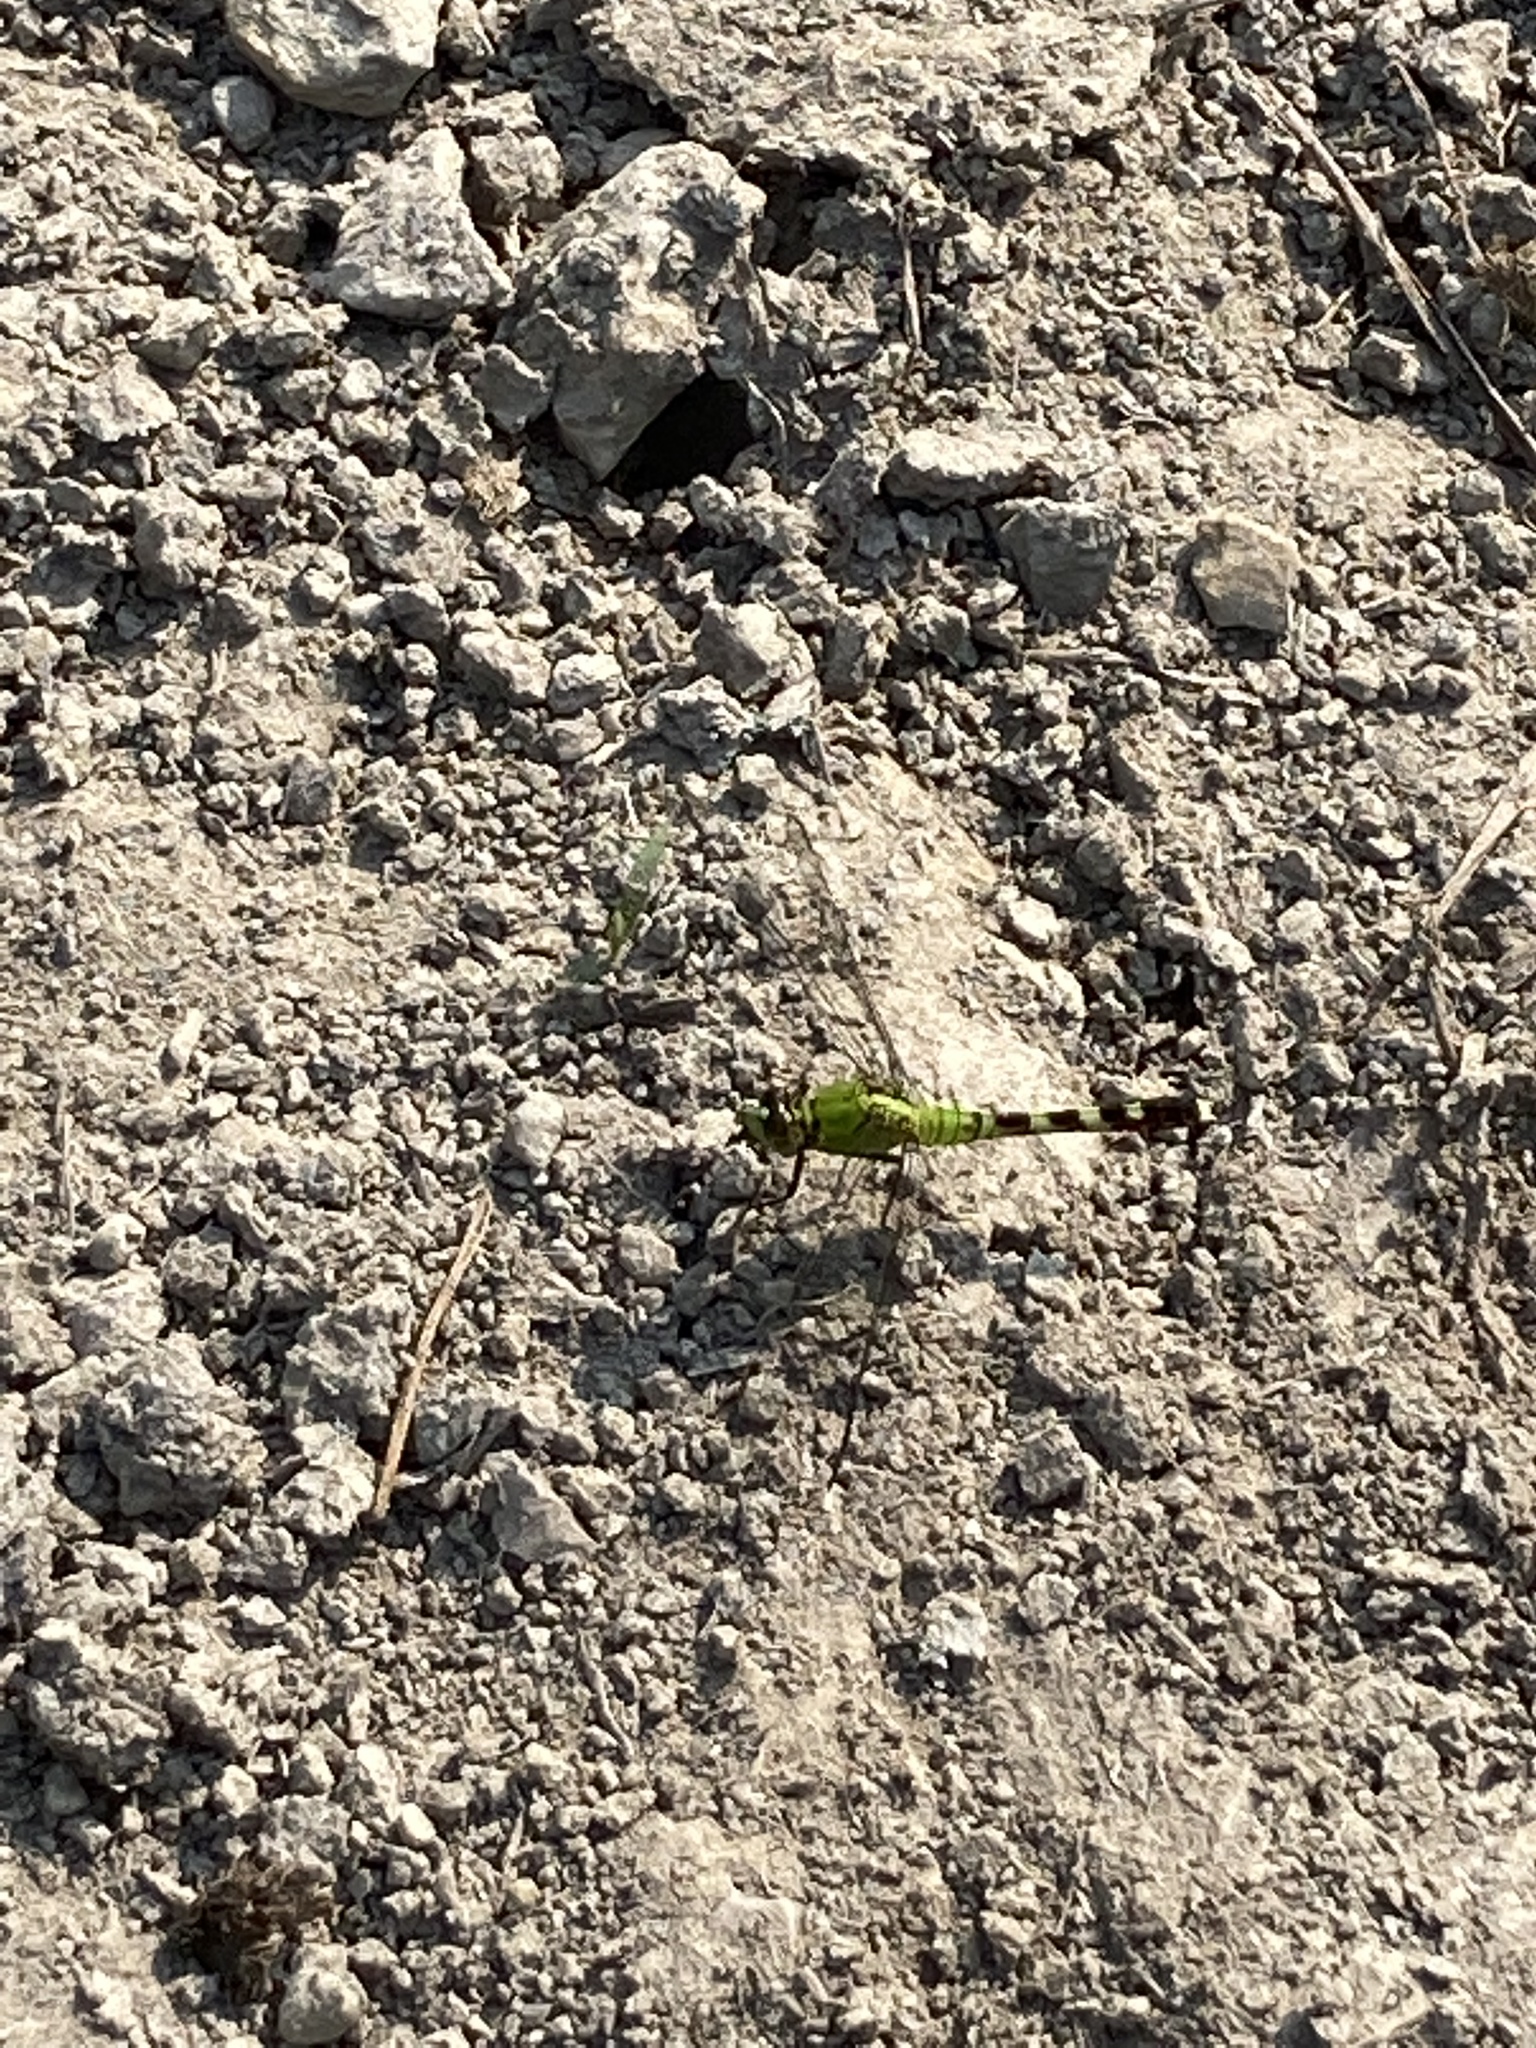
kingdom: Animalia
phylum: Arthropoda
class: Insecta
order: Odonata
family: Libellulidae
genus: Erythemis
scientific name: Erythemis simplicicollis
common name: Eastern pondhawk
